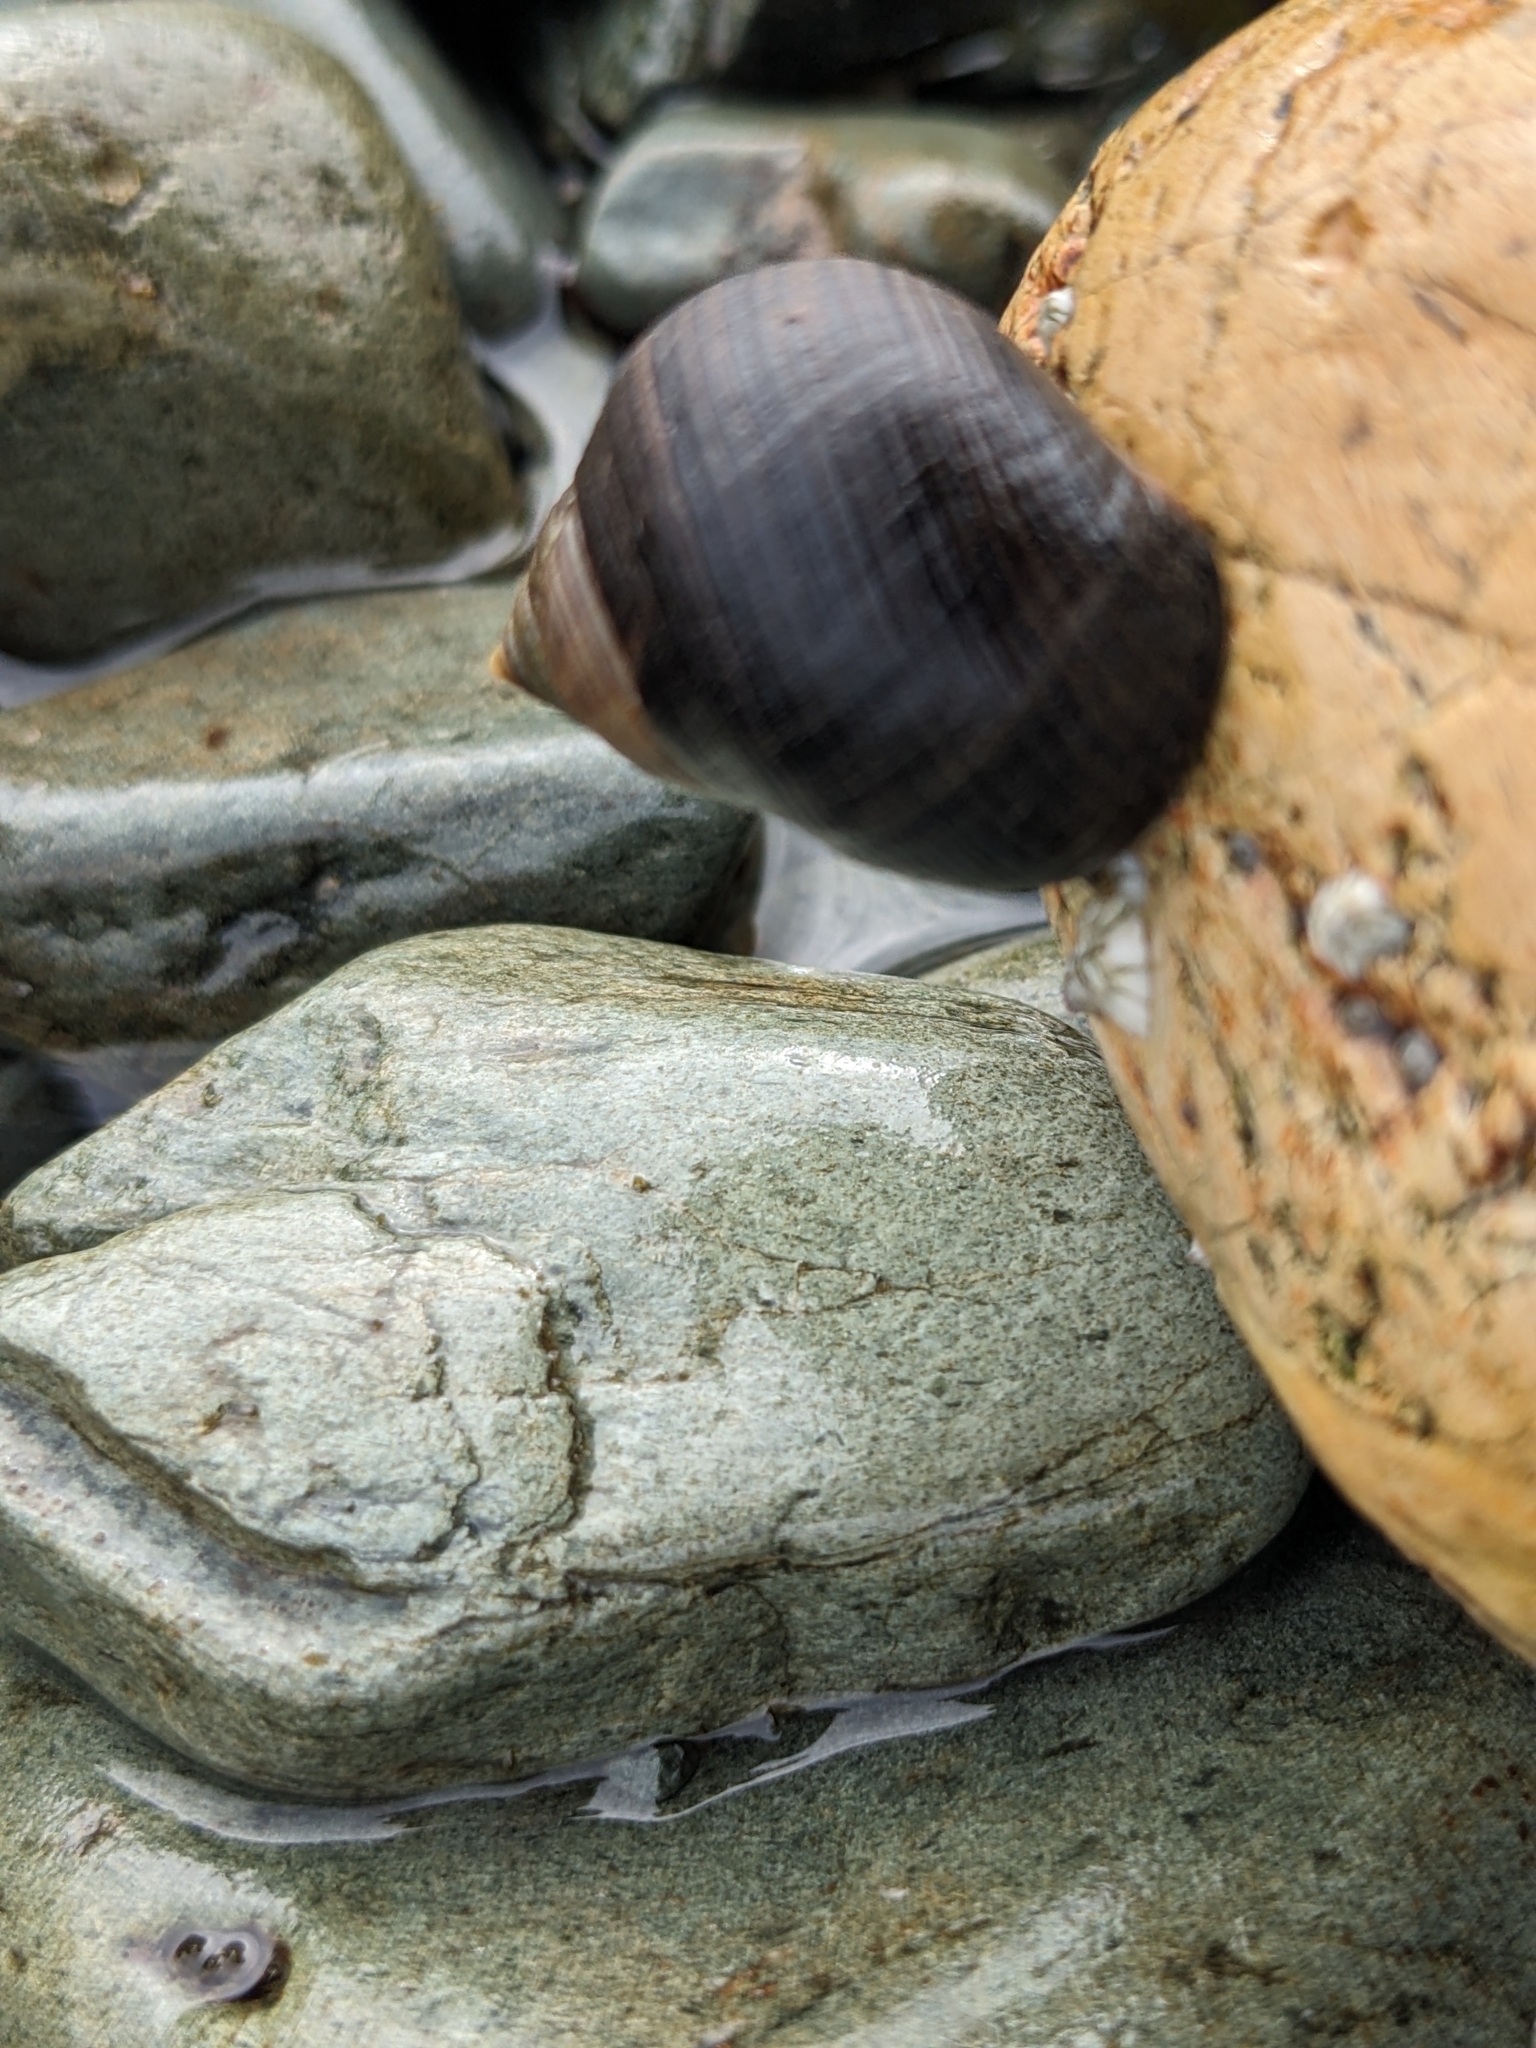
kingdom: Animalia
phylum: Mollusca
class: Gastropoda
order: Littorinimorpha
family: Littorinidae
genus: Littorina
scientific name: Littorina littorea
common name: Common periwinkle
